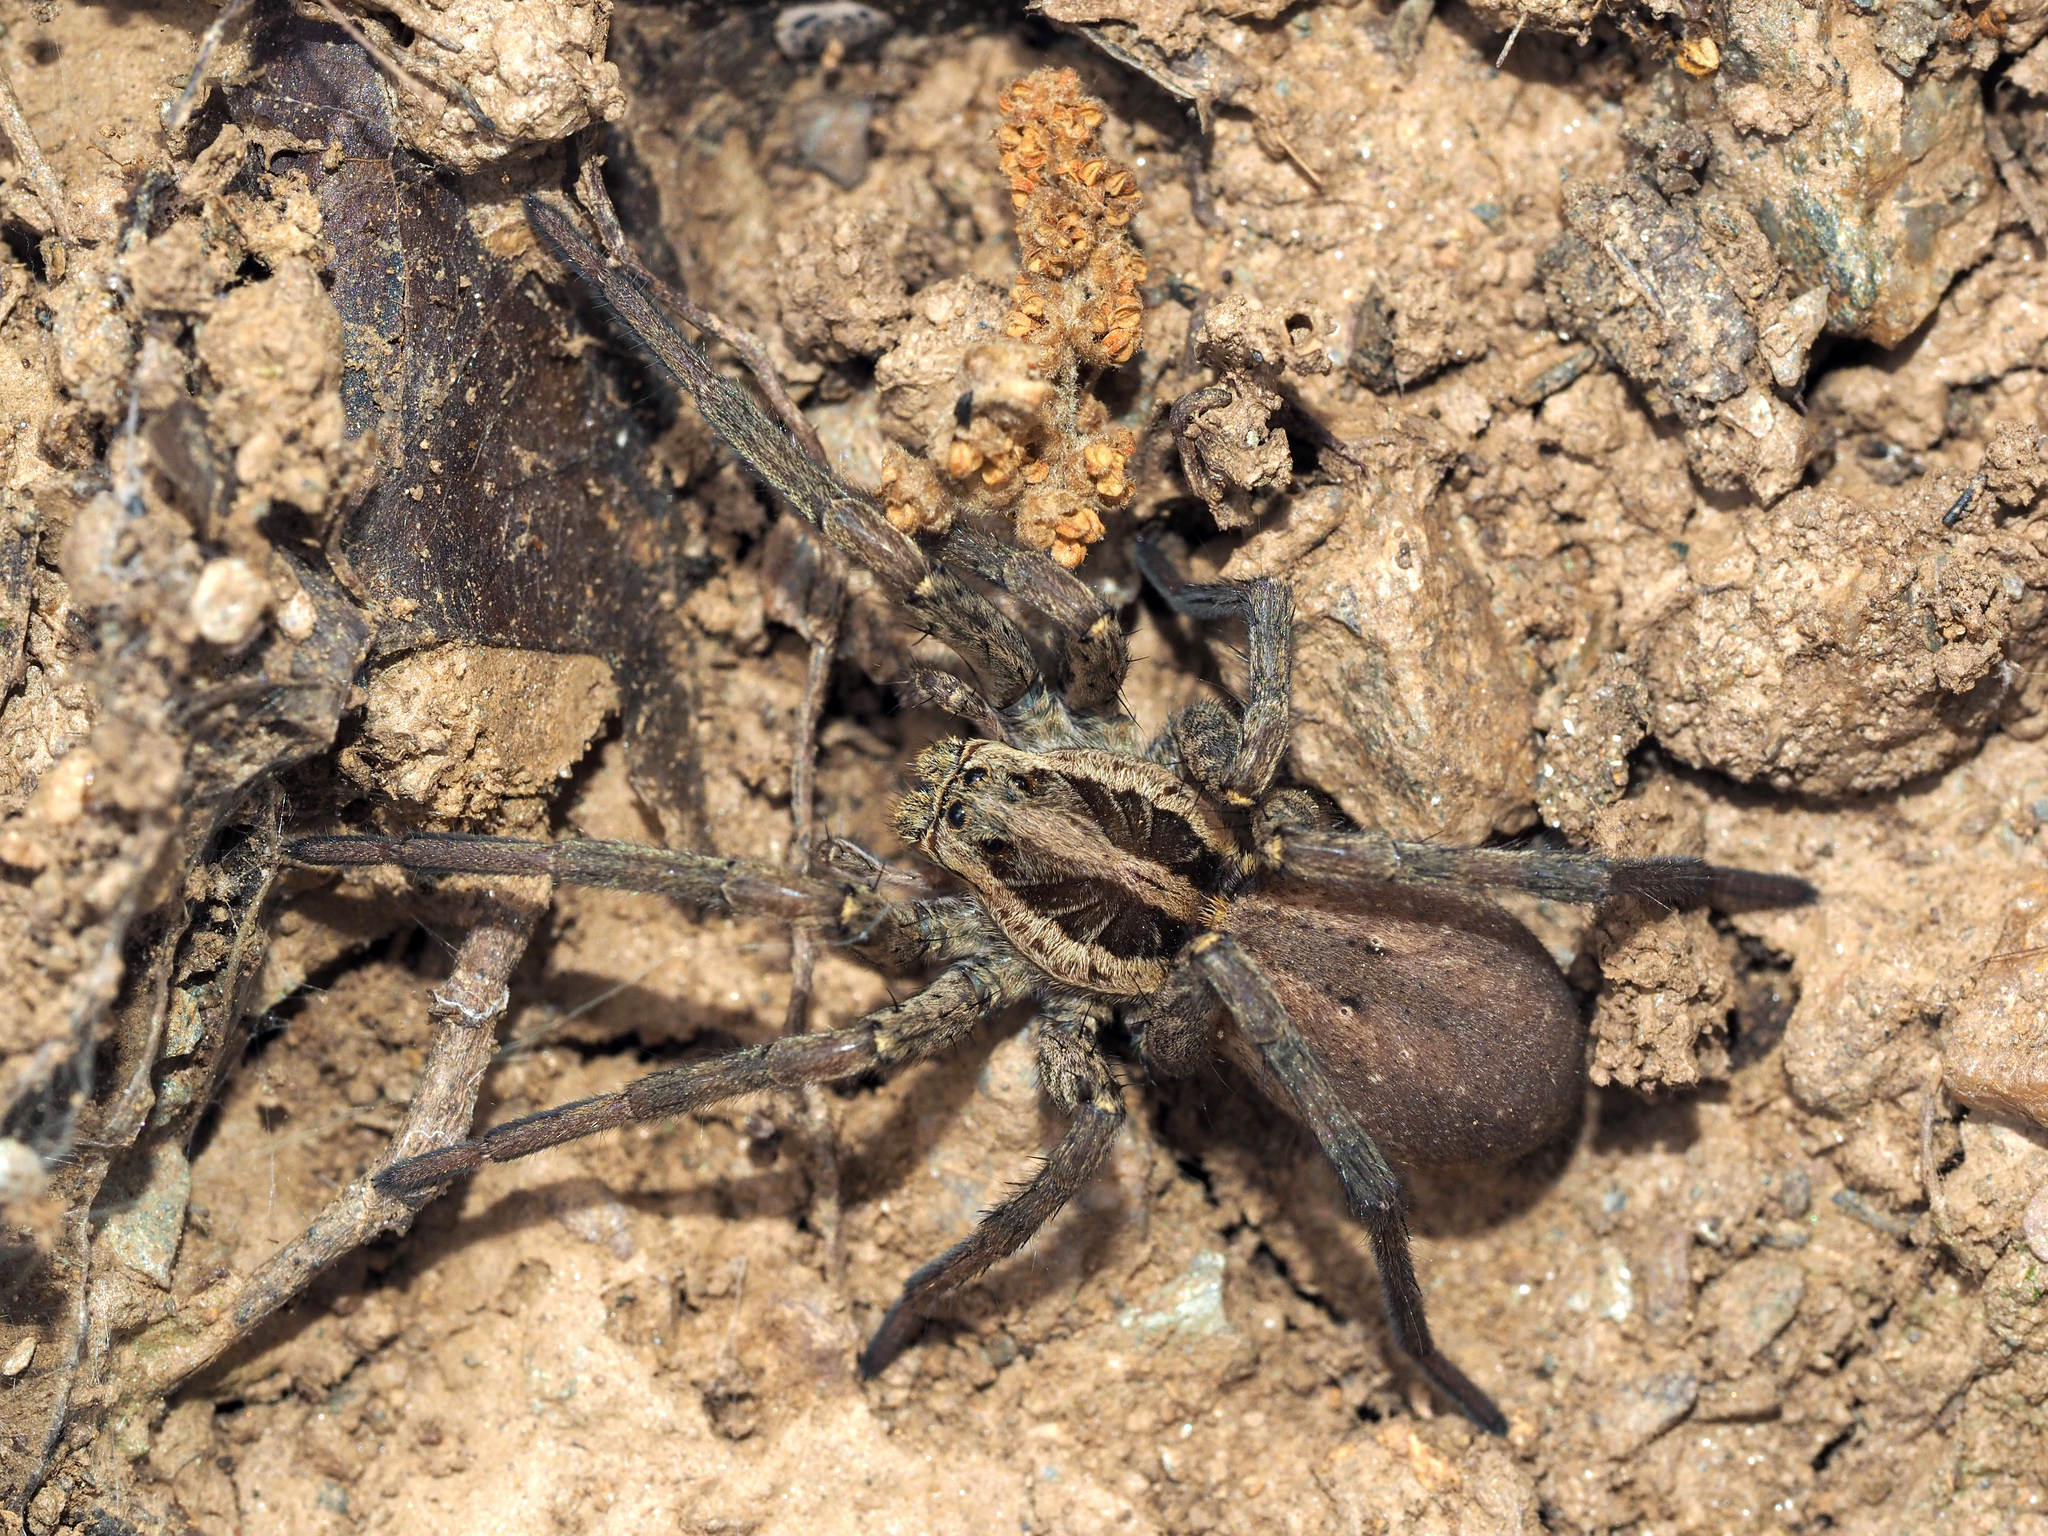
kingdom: Animalia
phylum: Arthropoda
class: Arachnida
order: Araneae
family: Lycosidae
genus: Hogna
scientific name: Hogna radiata
